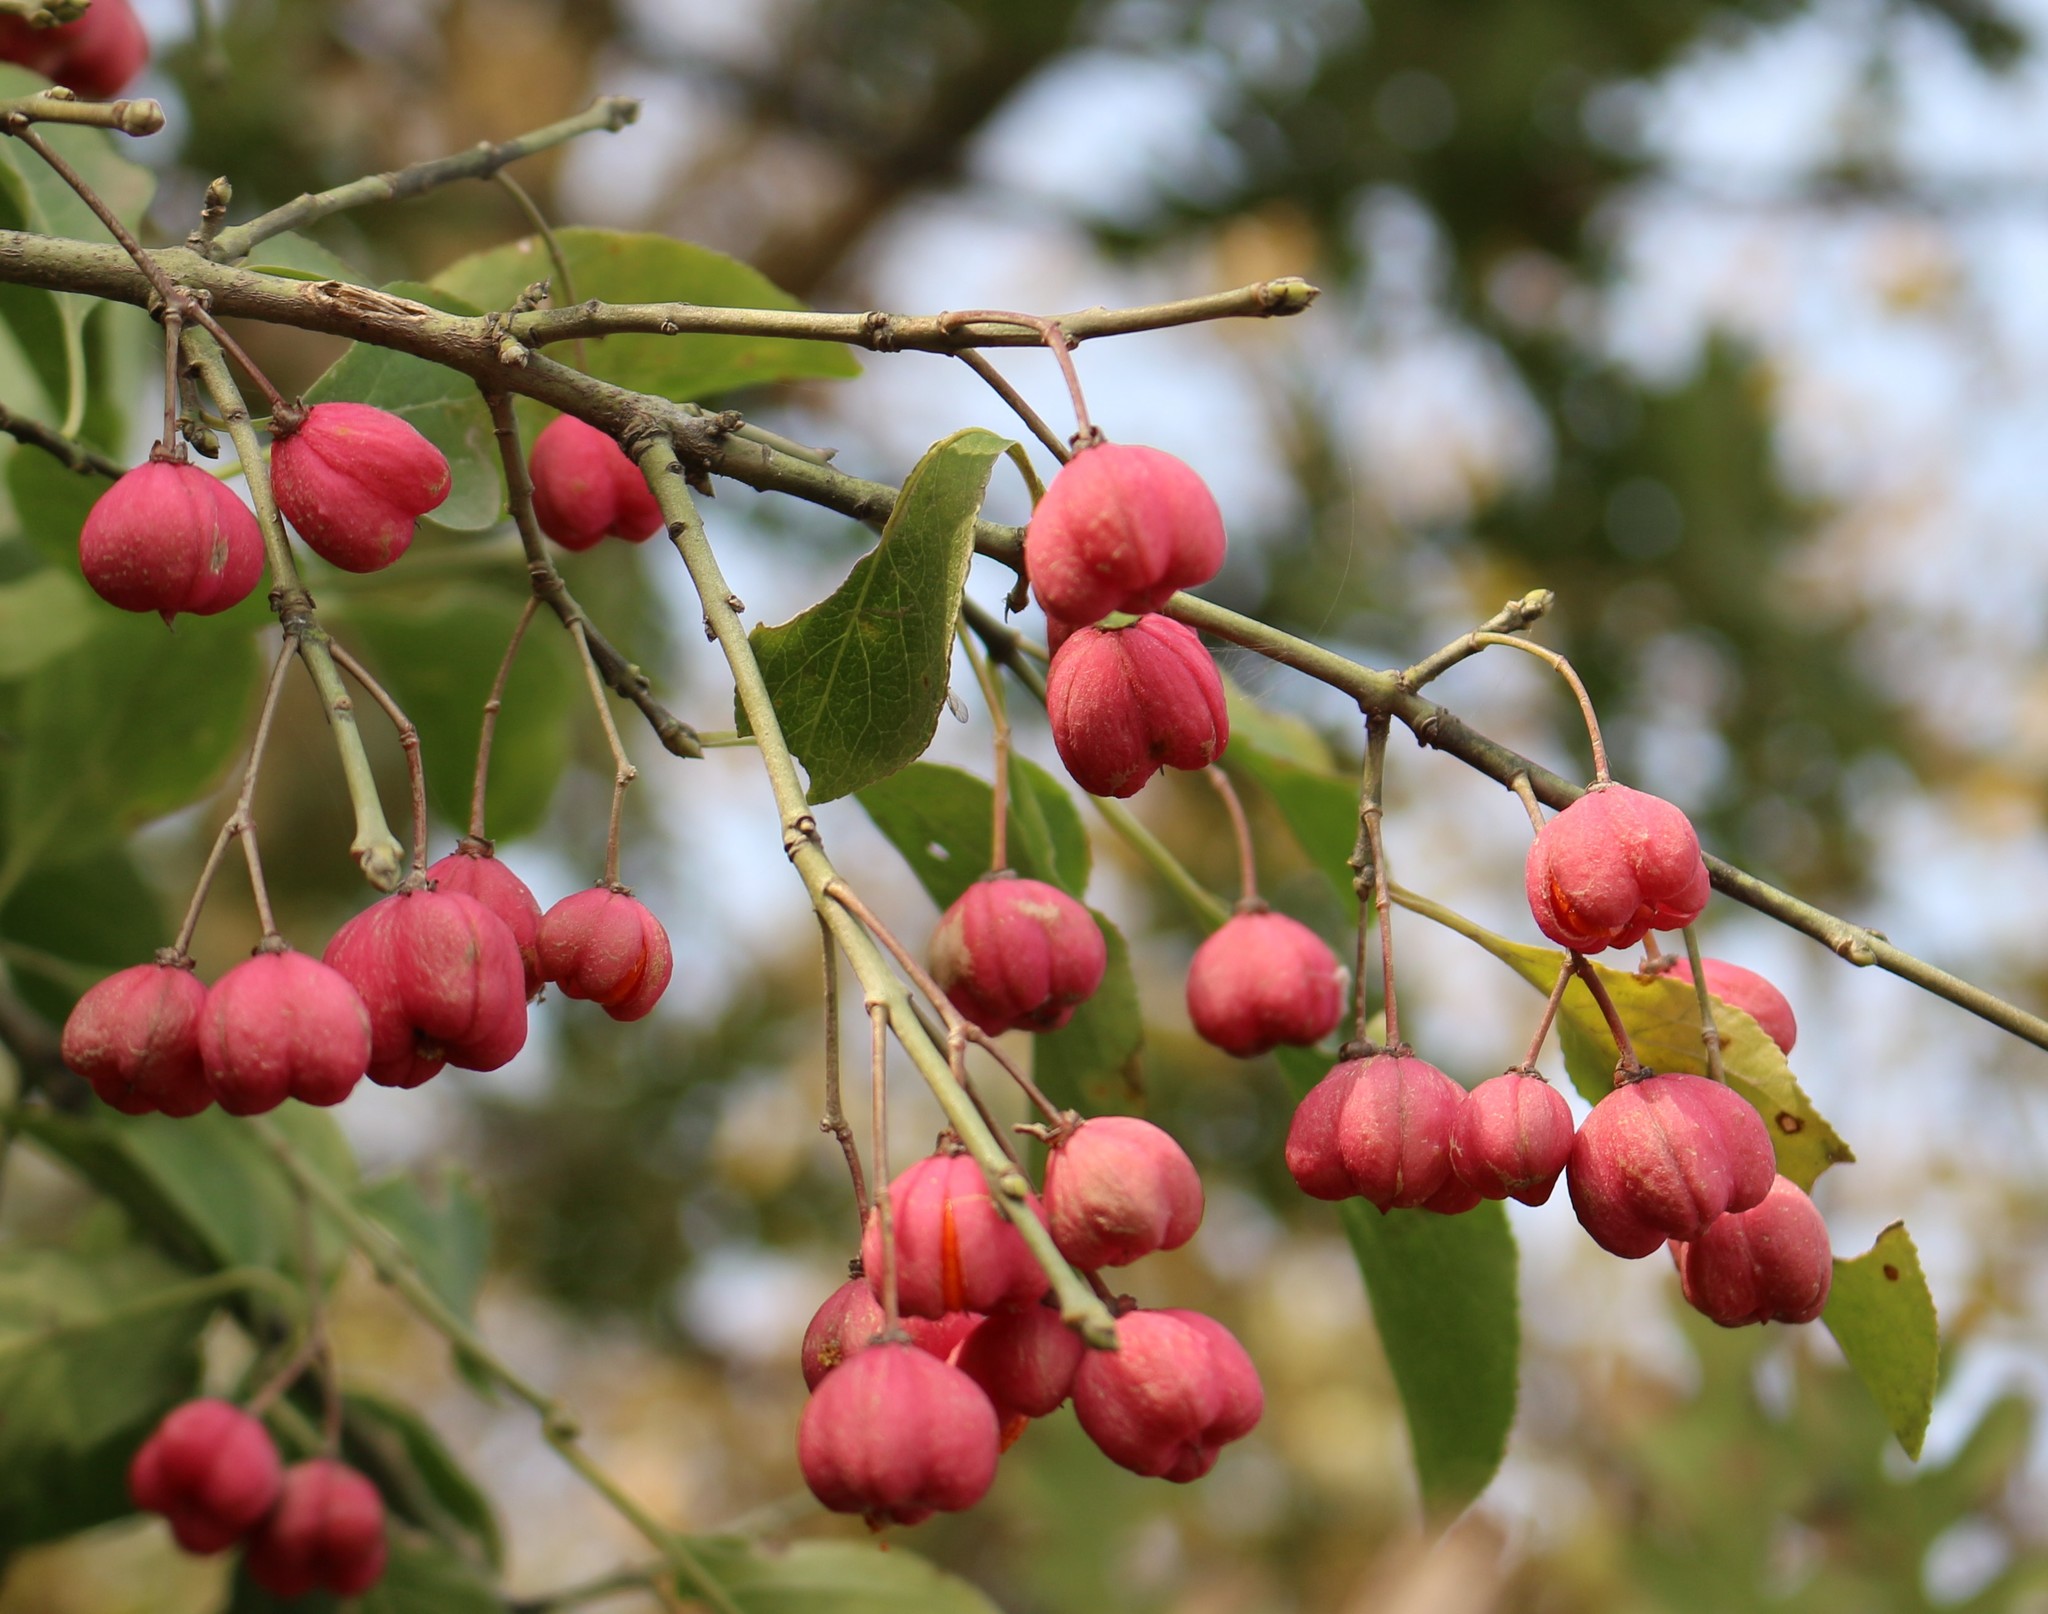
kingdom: Plantae
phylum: Tracheophyta
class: Magnoliopsida
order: Celastrales
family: Celastraceae
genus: Euonymus
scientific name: Euonymus europaeus
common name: Spindle
